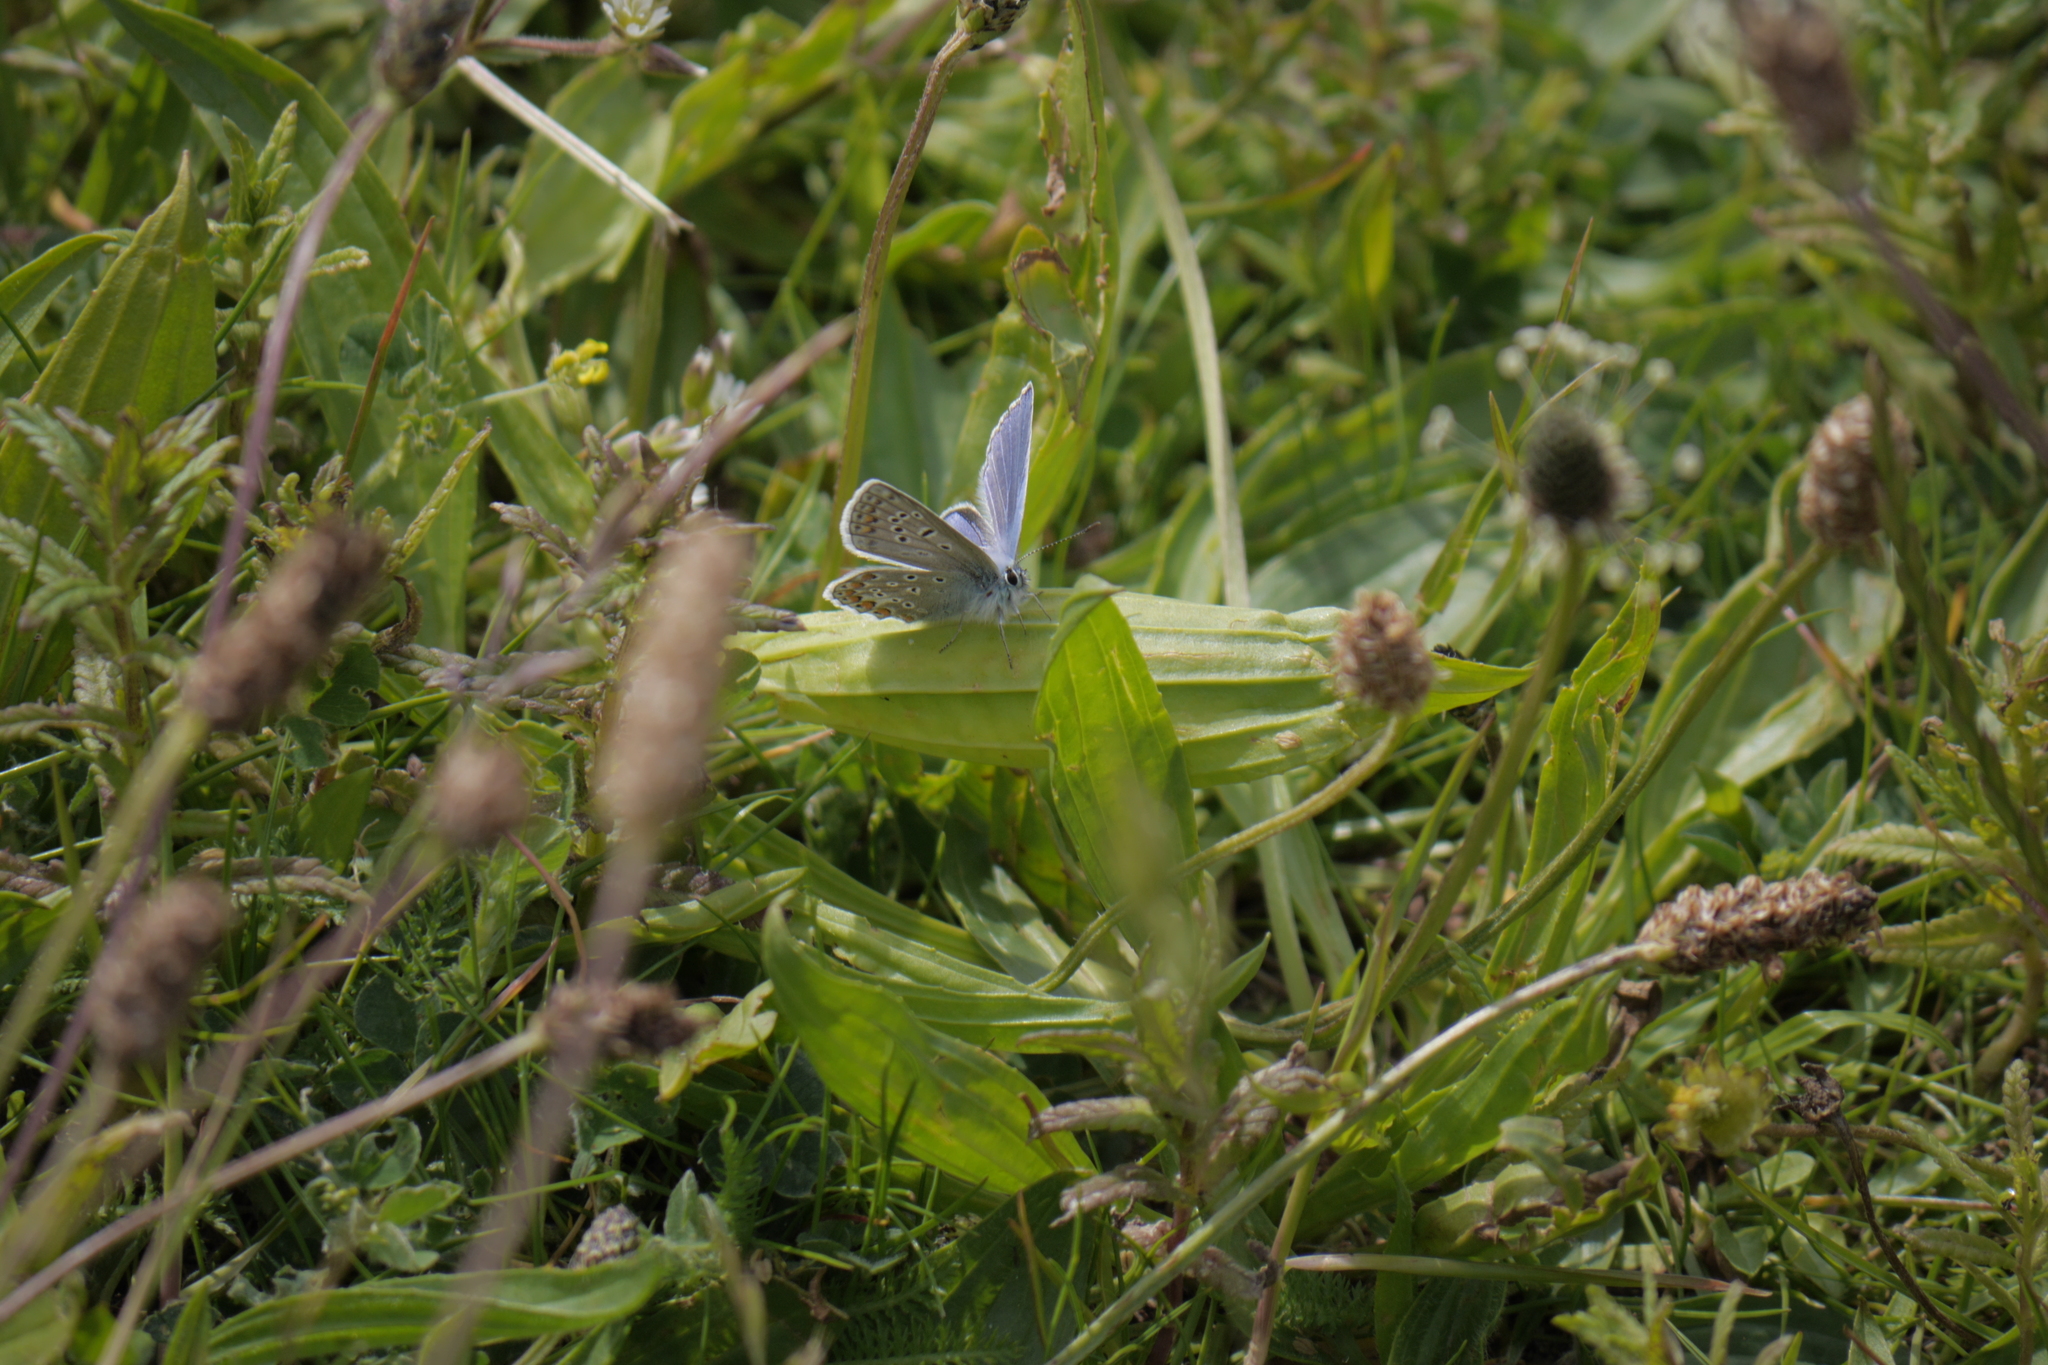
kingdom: Animalia
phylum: Arthropoda
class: Insecta
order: Lepidoptera
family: Lycaenidae
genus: Polyommatus
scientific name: Polyommatus icarus
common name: Common blue
